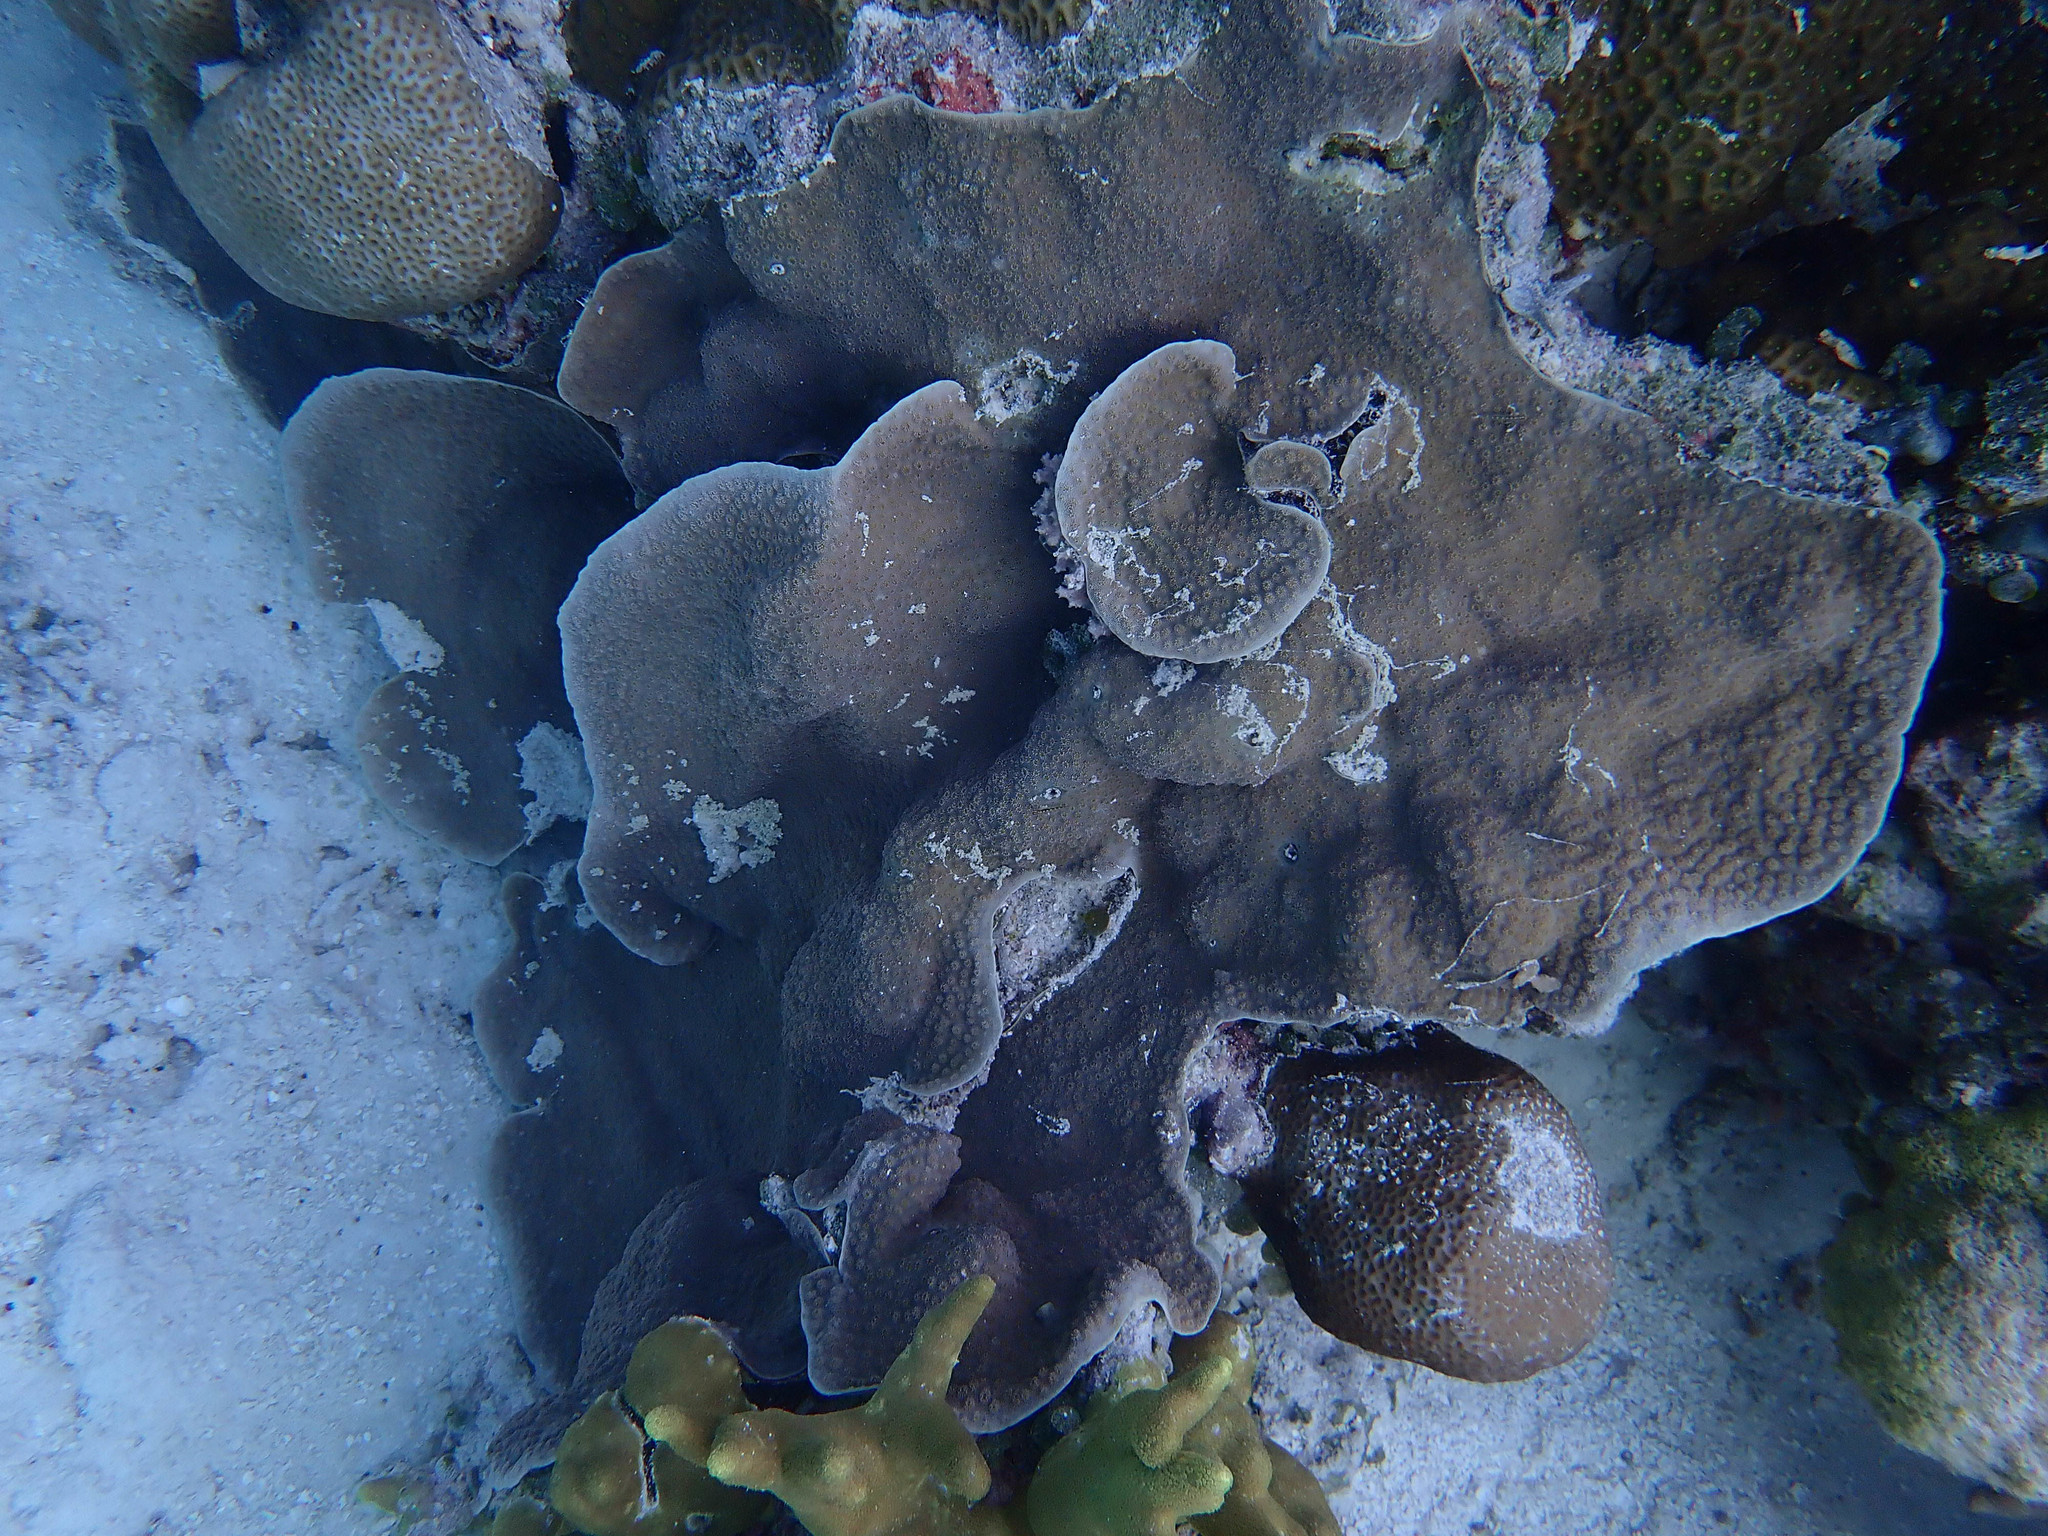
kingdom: Animalia
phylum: Cnidaria
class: Anthozoa
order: Scleractinia
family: Merulinidae
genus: Echinopora
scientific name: Echinopora lamellosa
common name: Hedgehog coral
